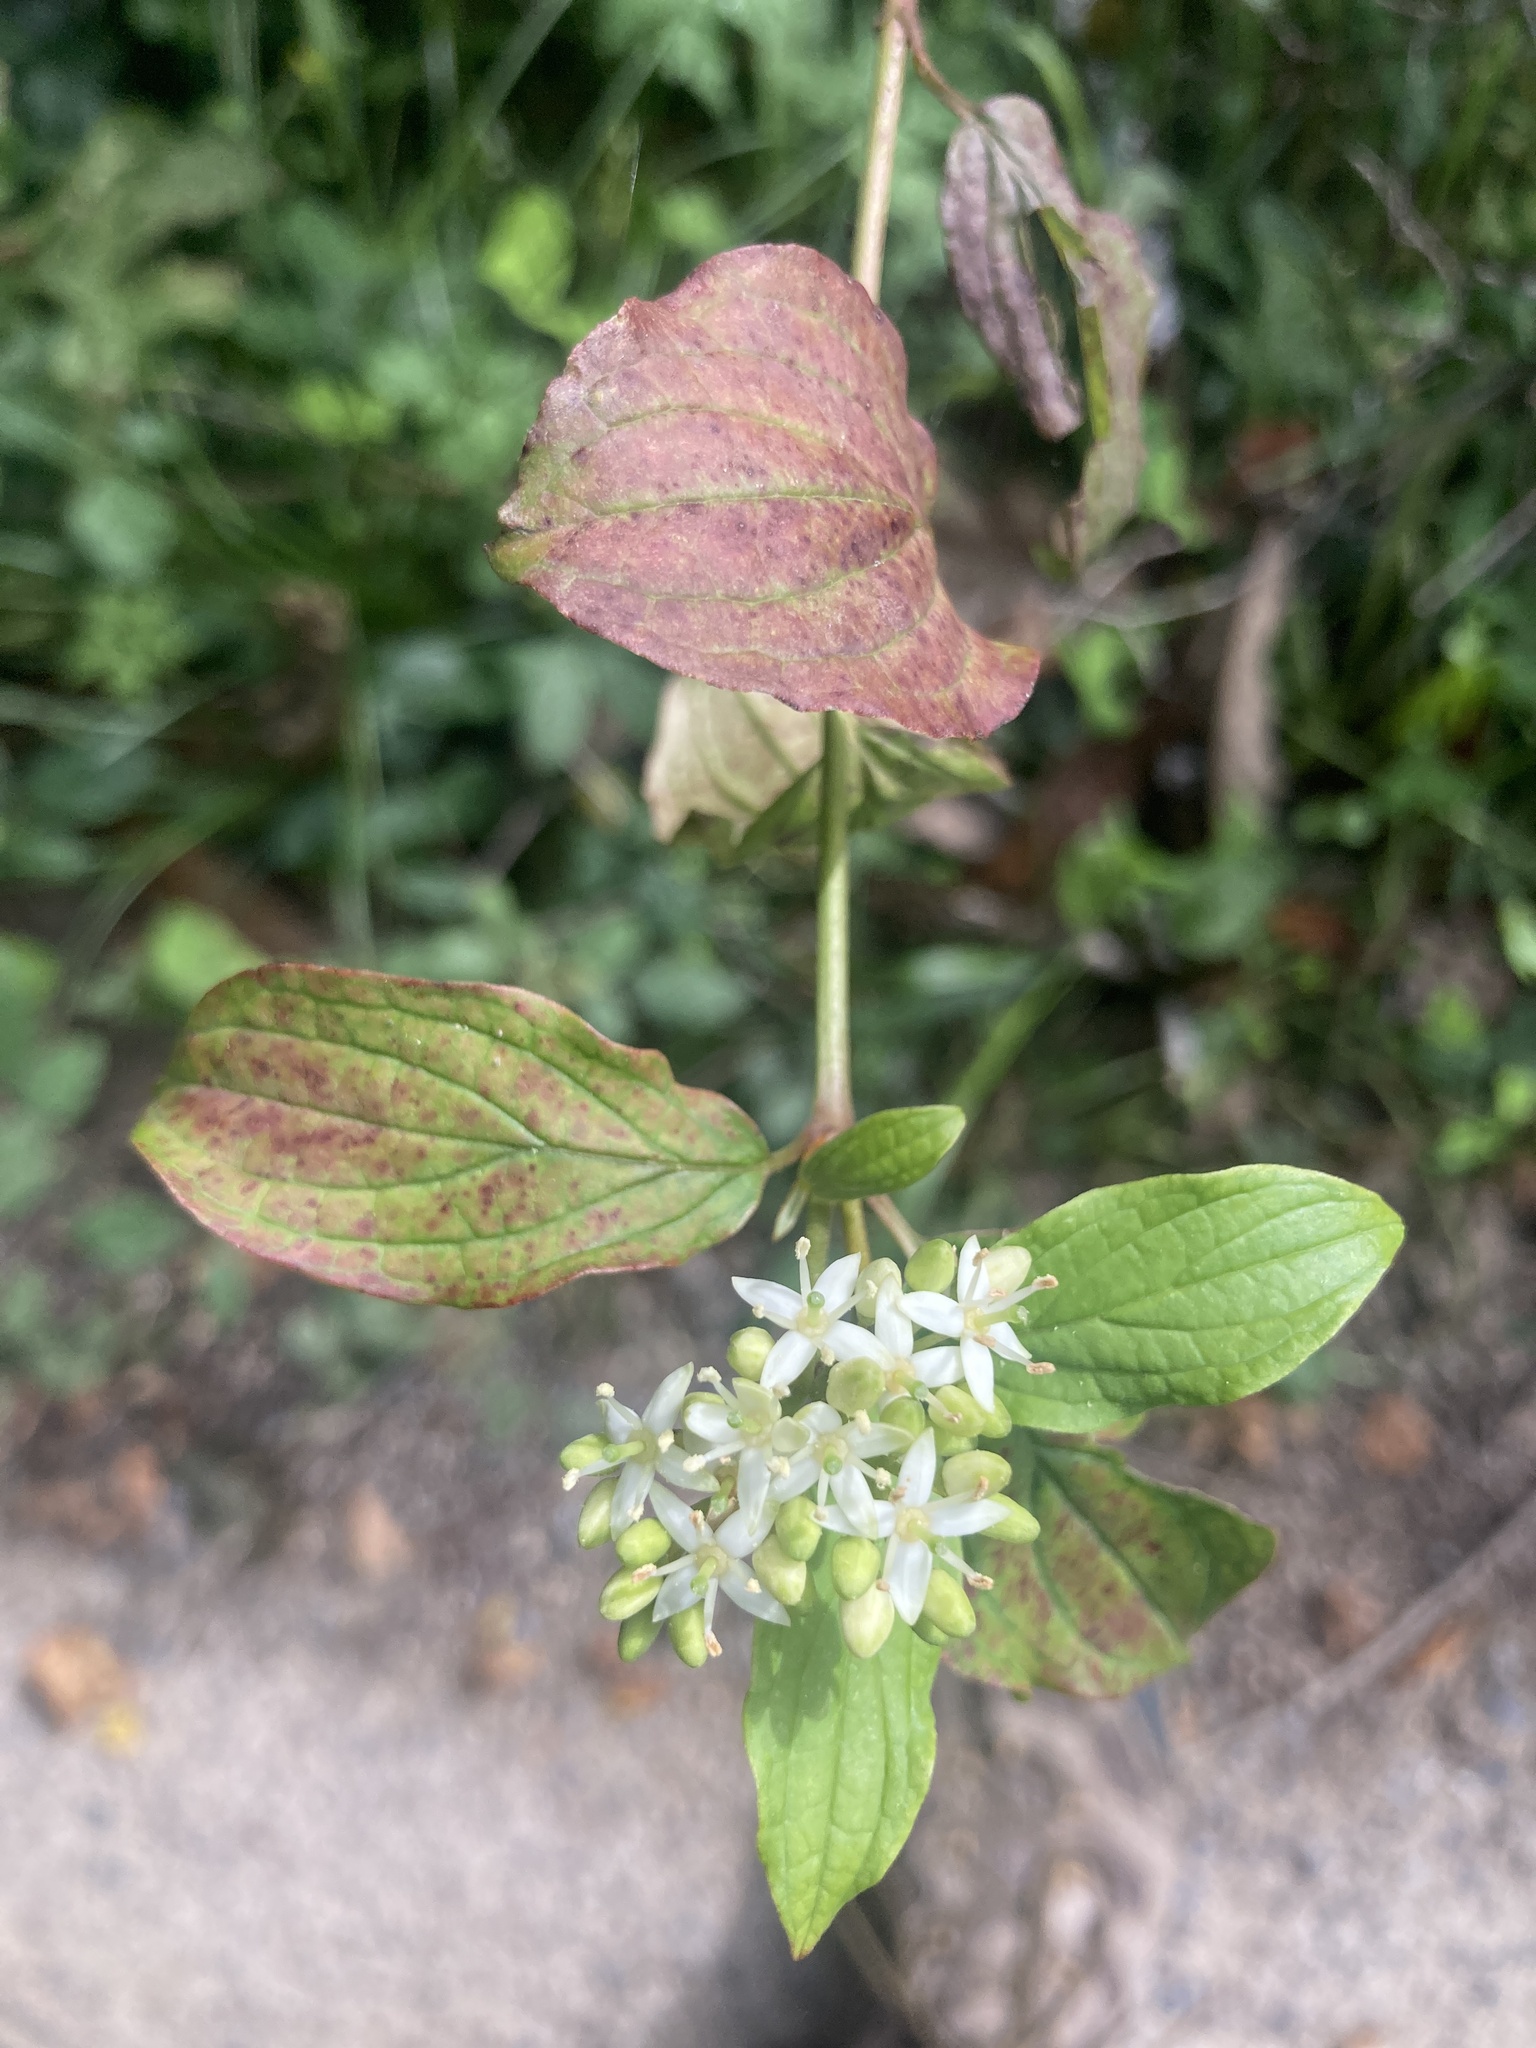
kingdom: Plantae
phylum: Tracheophyta
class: Magnoliopsida
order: Cornales
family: Cornaceae
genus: Cornus
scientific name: Cornus sanguinea
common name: Dogwood
